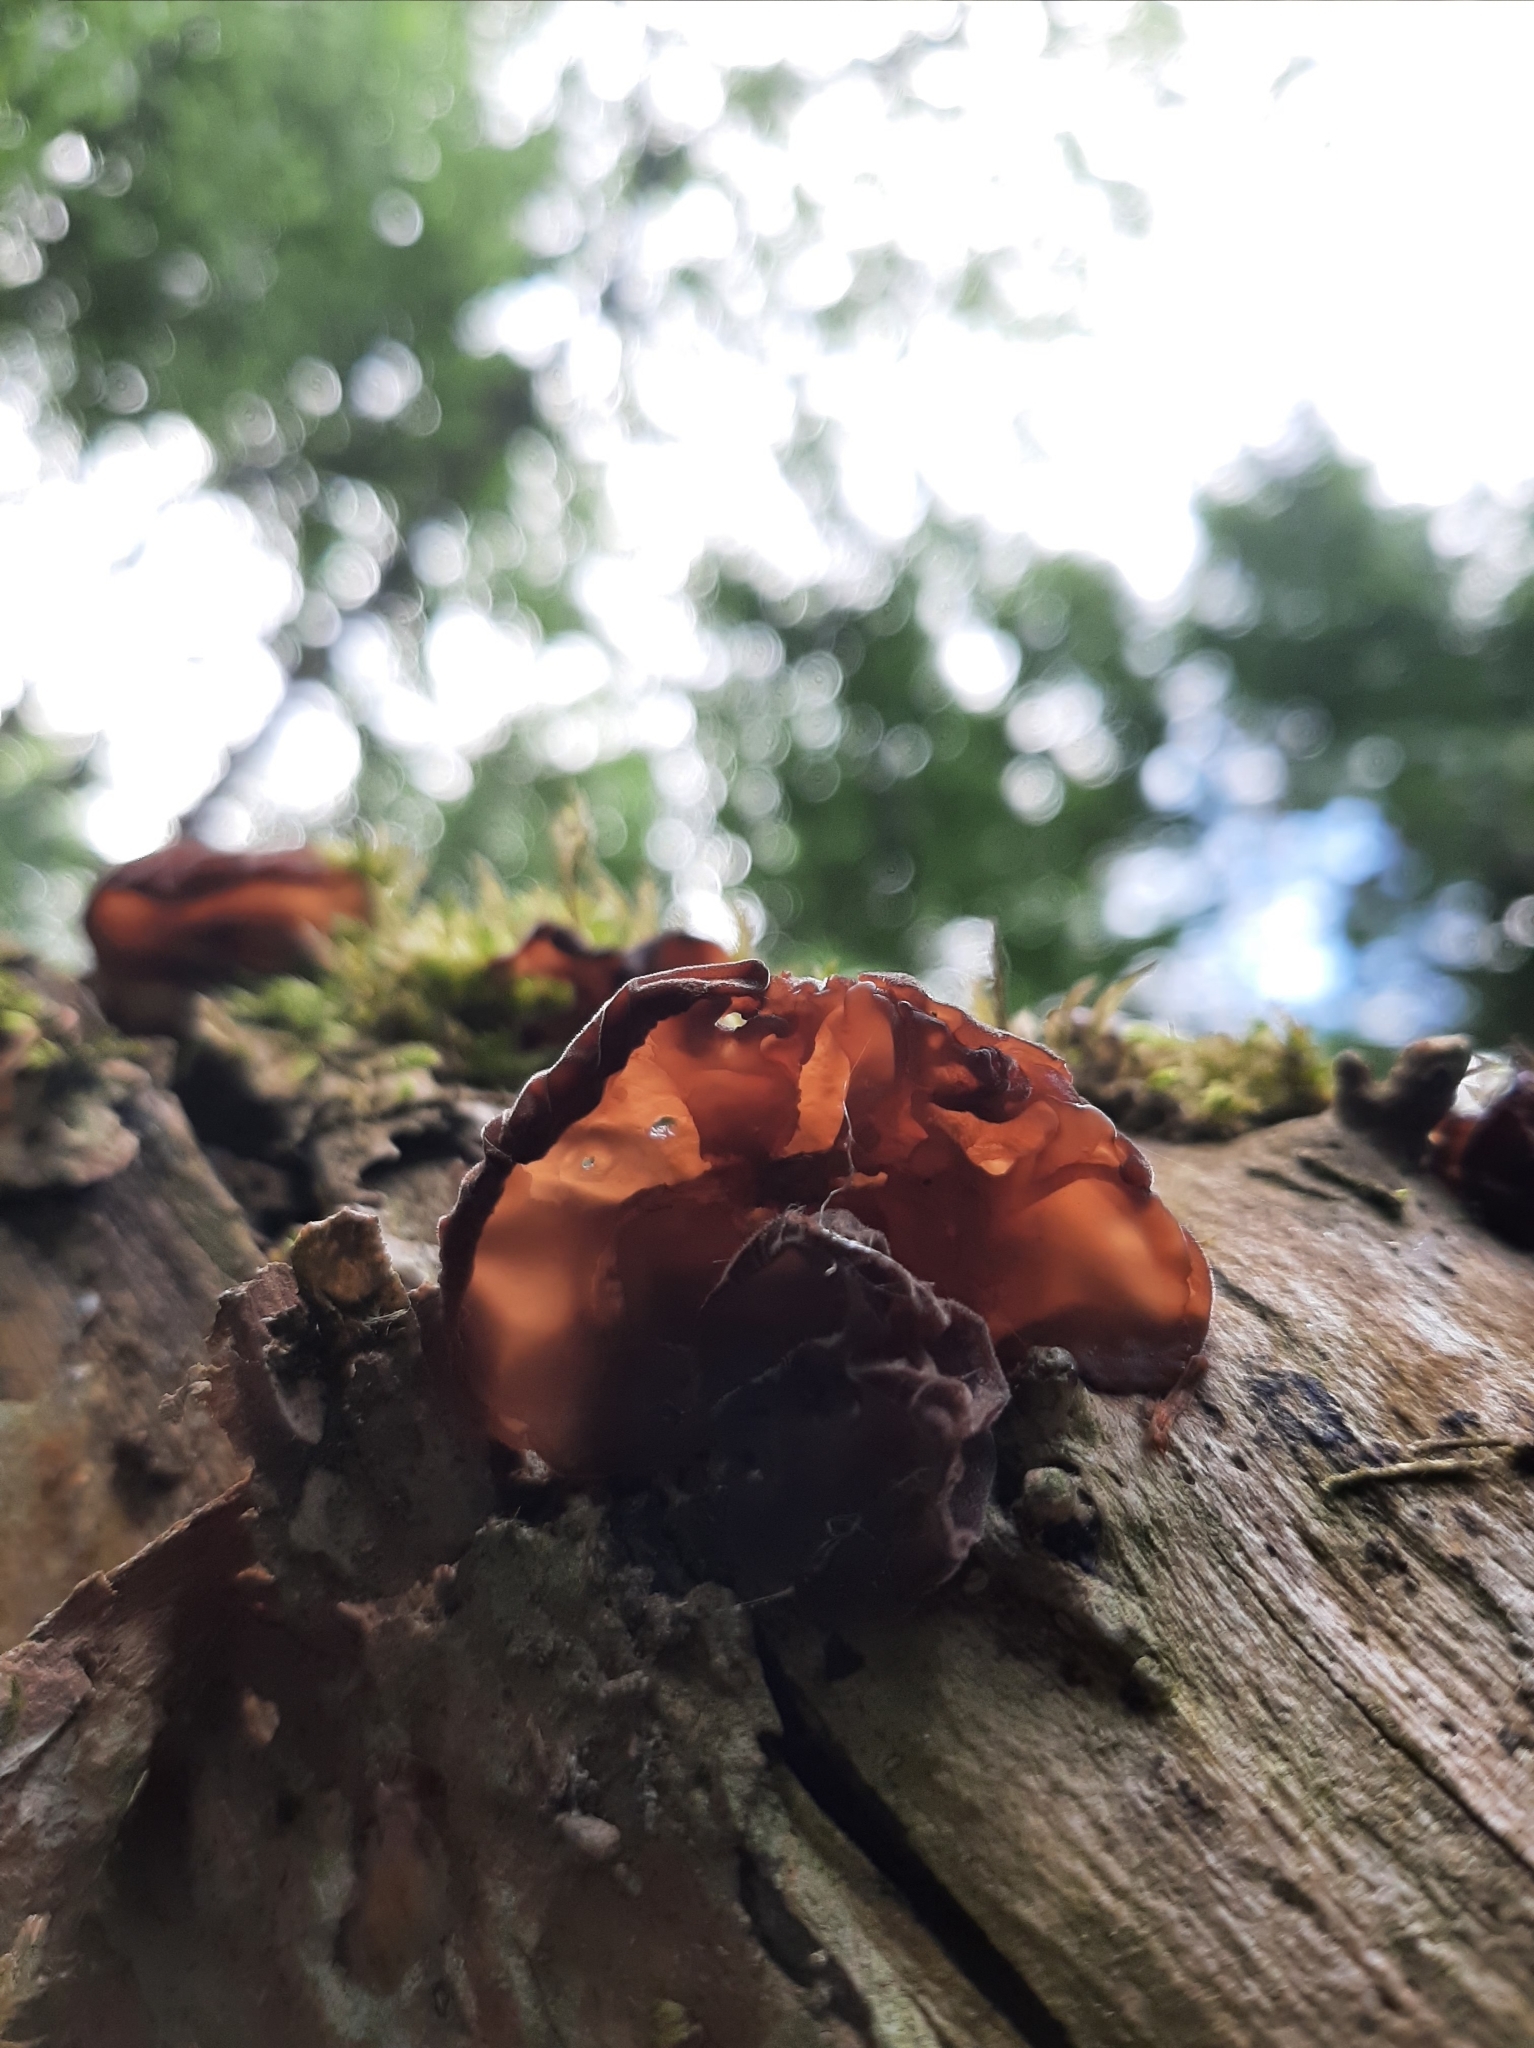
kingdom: Fungi
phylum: Basidiomycota
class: Agaricomycetes
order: Auriculariales
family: Auriculariaceae
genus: Auricularia
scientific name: Auricularia auricula-judae
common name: Jelly ear
